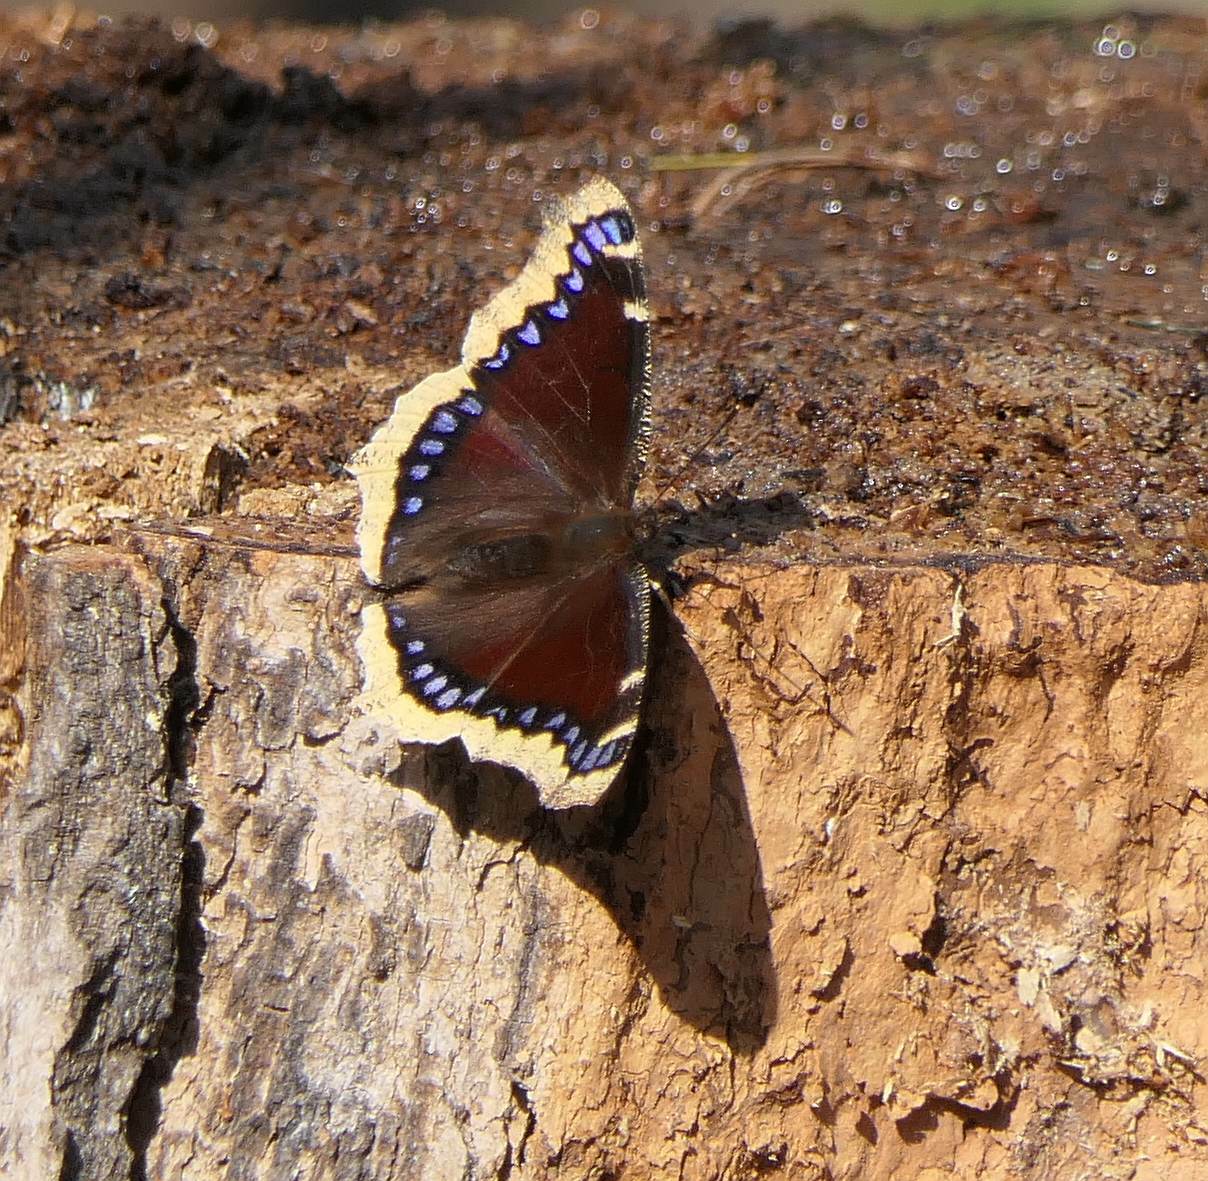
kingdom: Animalia
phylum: Arthropoda
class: Insecta
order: Lepidoptera
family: Nymphalidae
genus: Nymphalis
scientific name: Nymphalis antiopa
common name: Camberwell beauty
